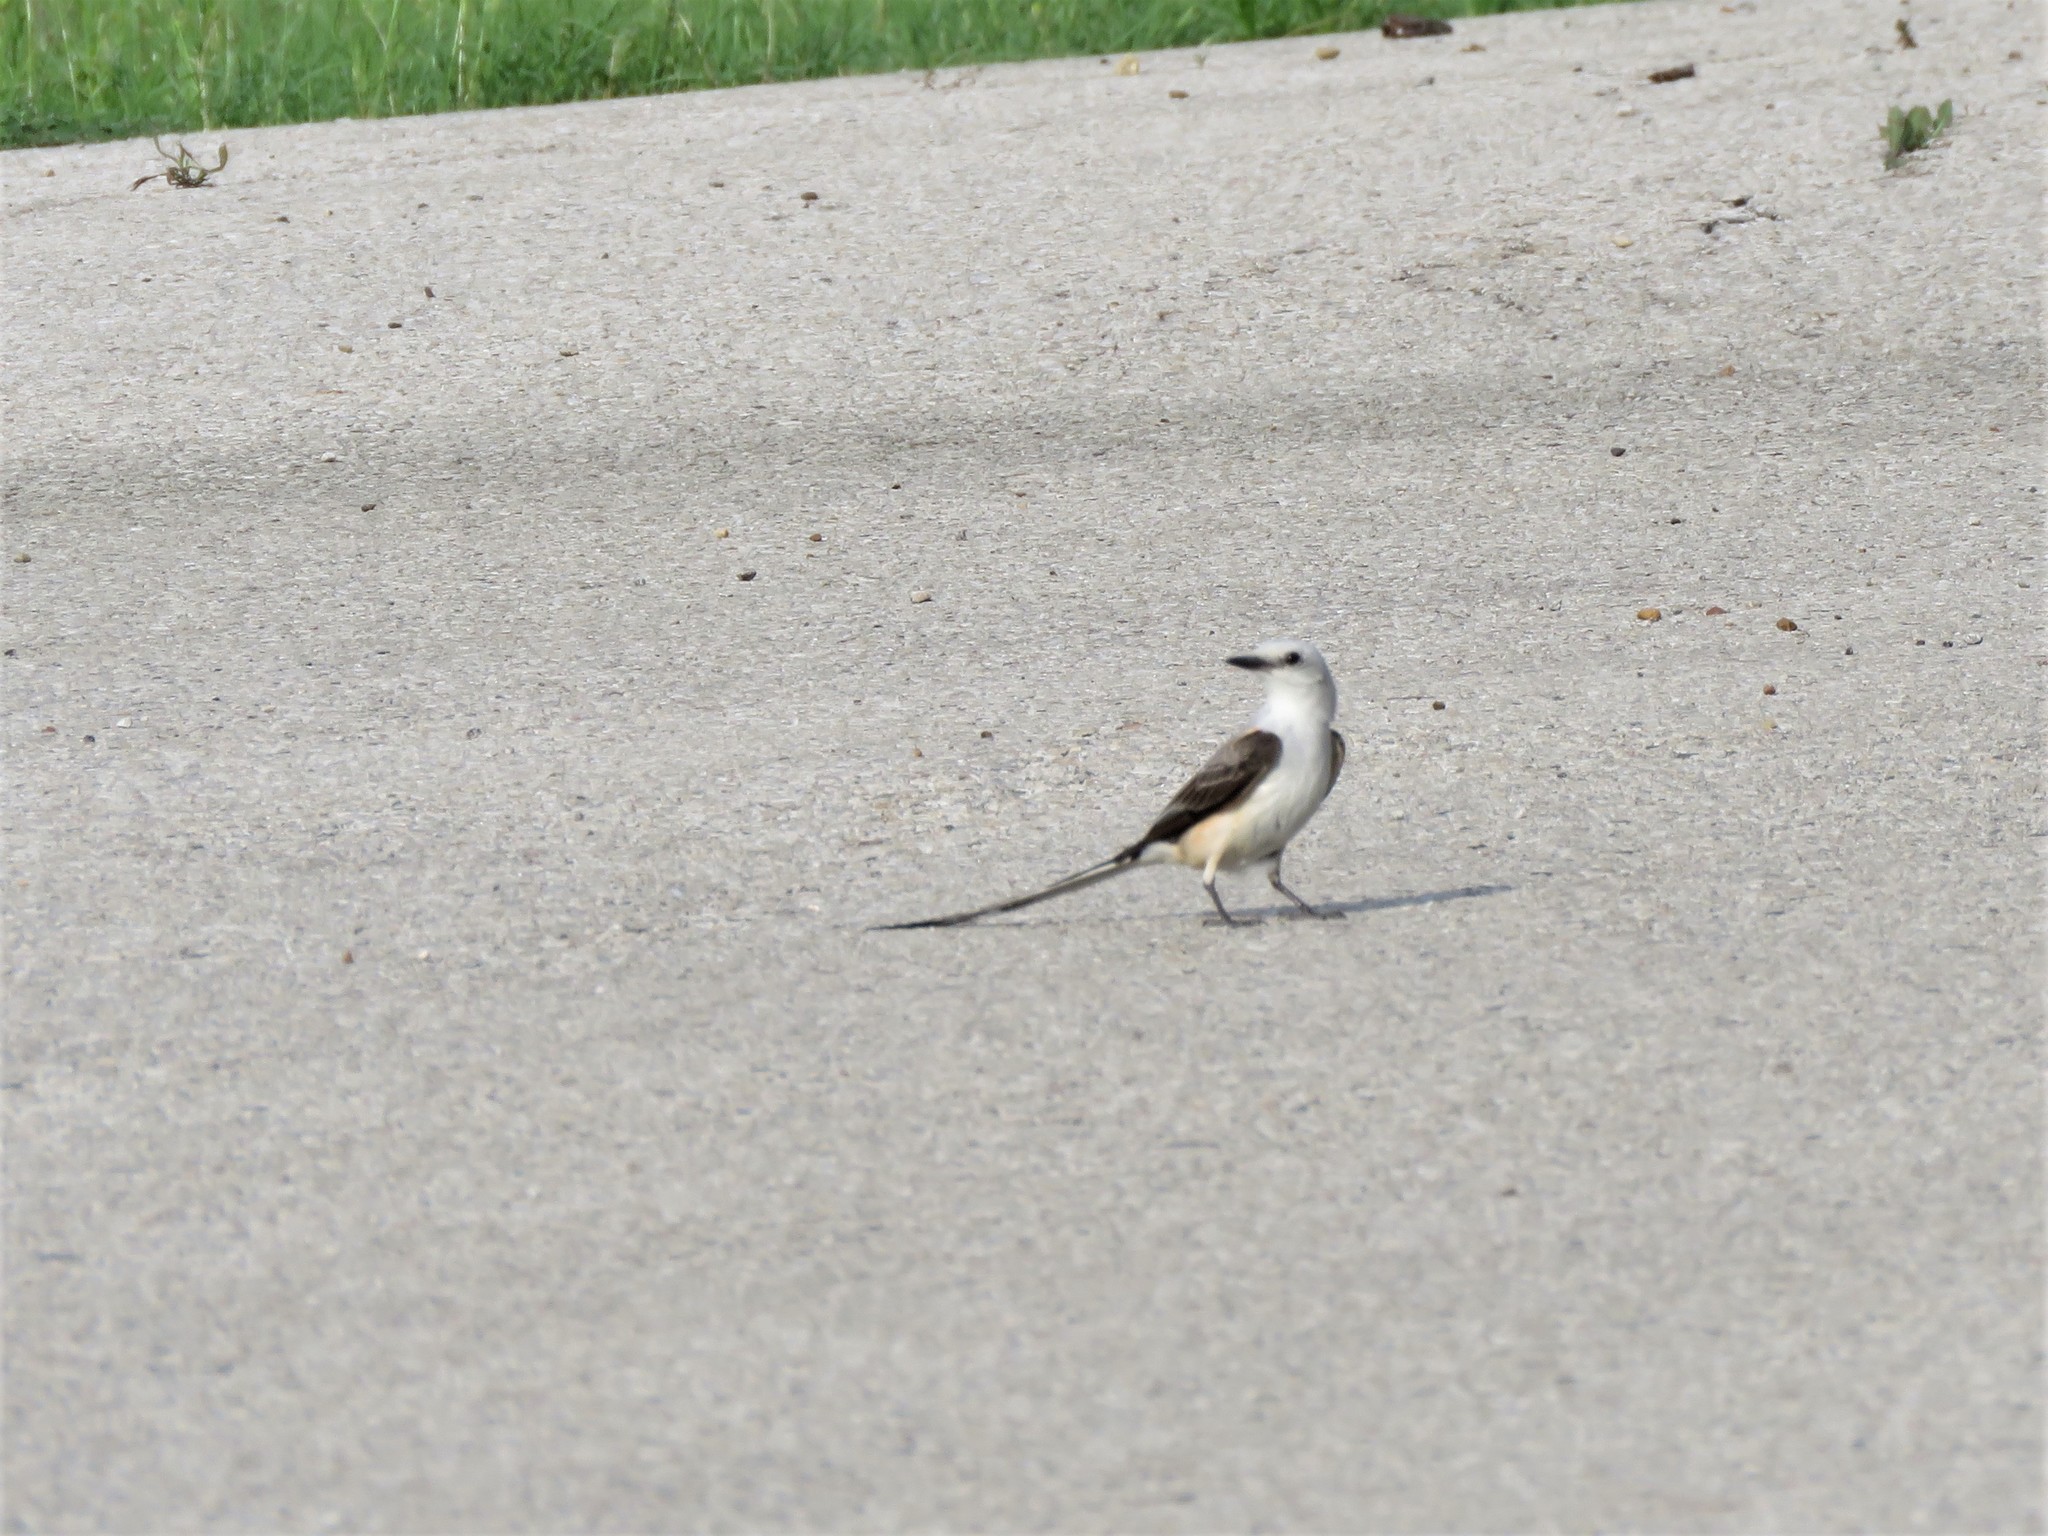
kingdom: Animalia
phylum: Chordata
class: Aves
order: Passeriformes
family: Tyrannidae
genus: Tyrannus
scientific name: Tyrannus forficatus
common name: Scissor-tailed flycatcher
